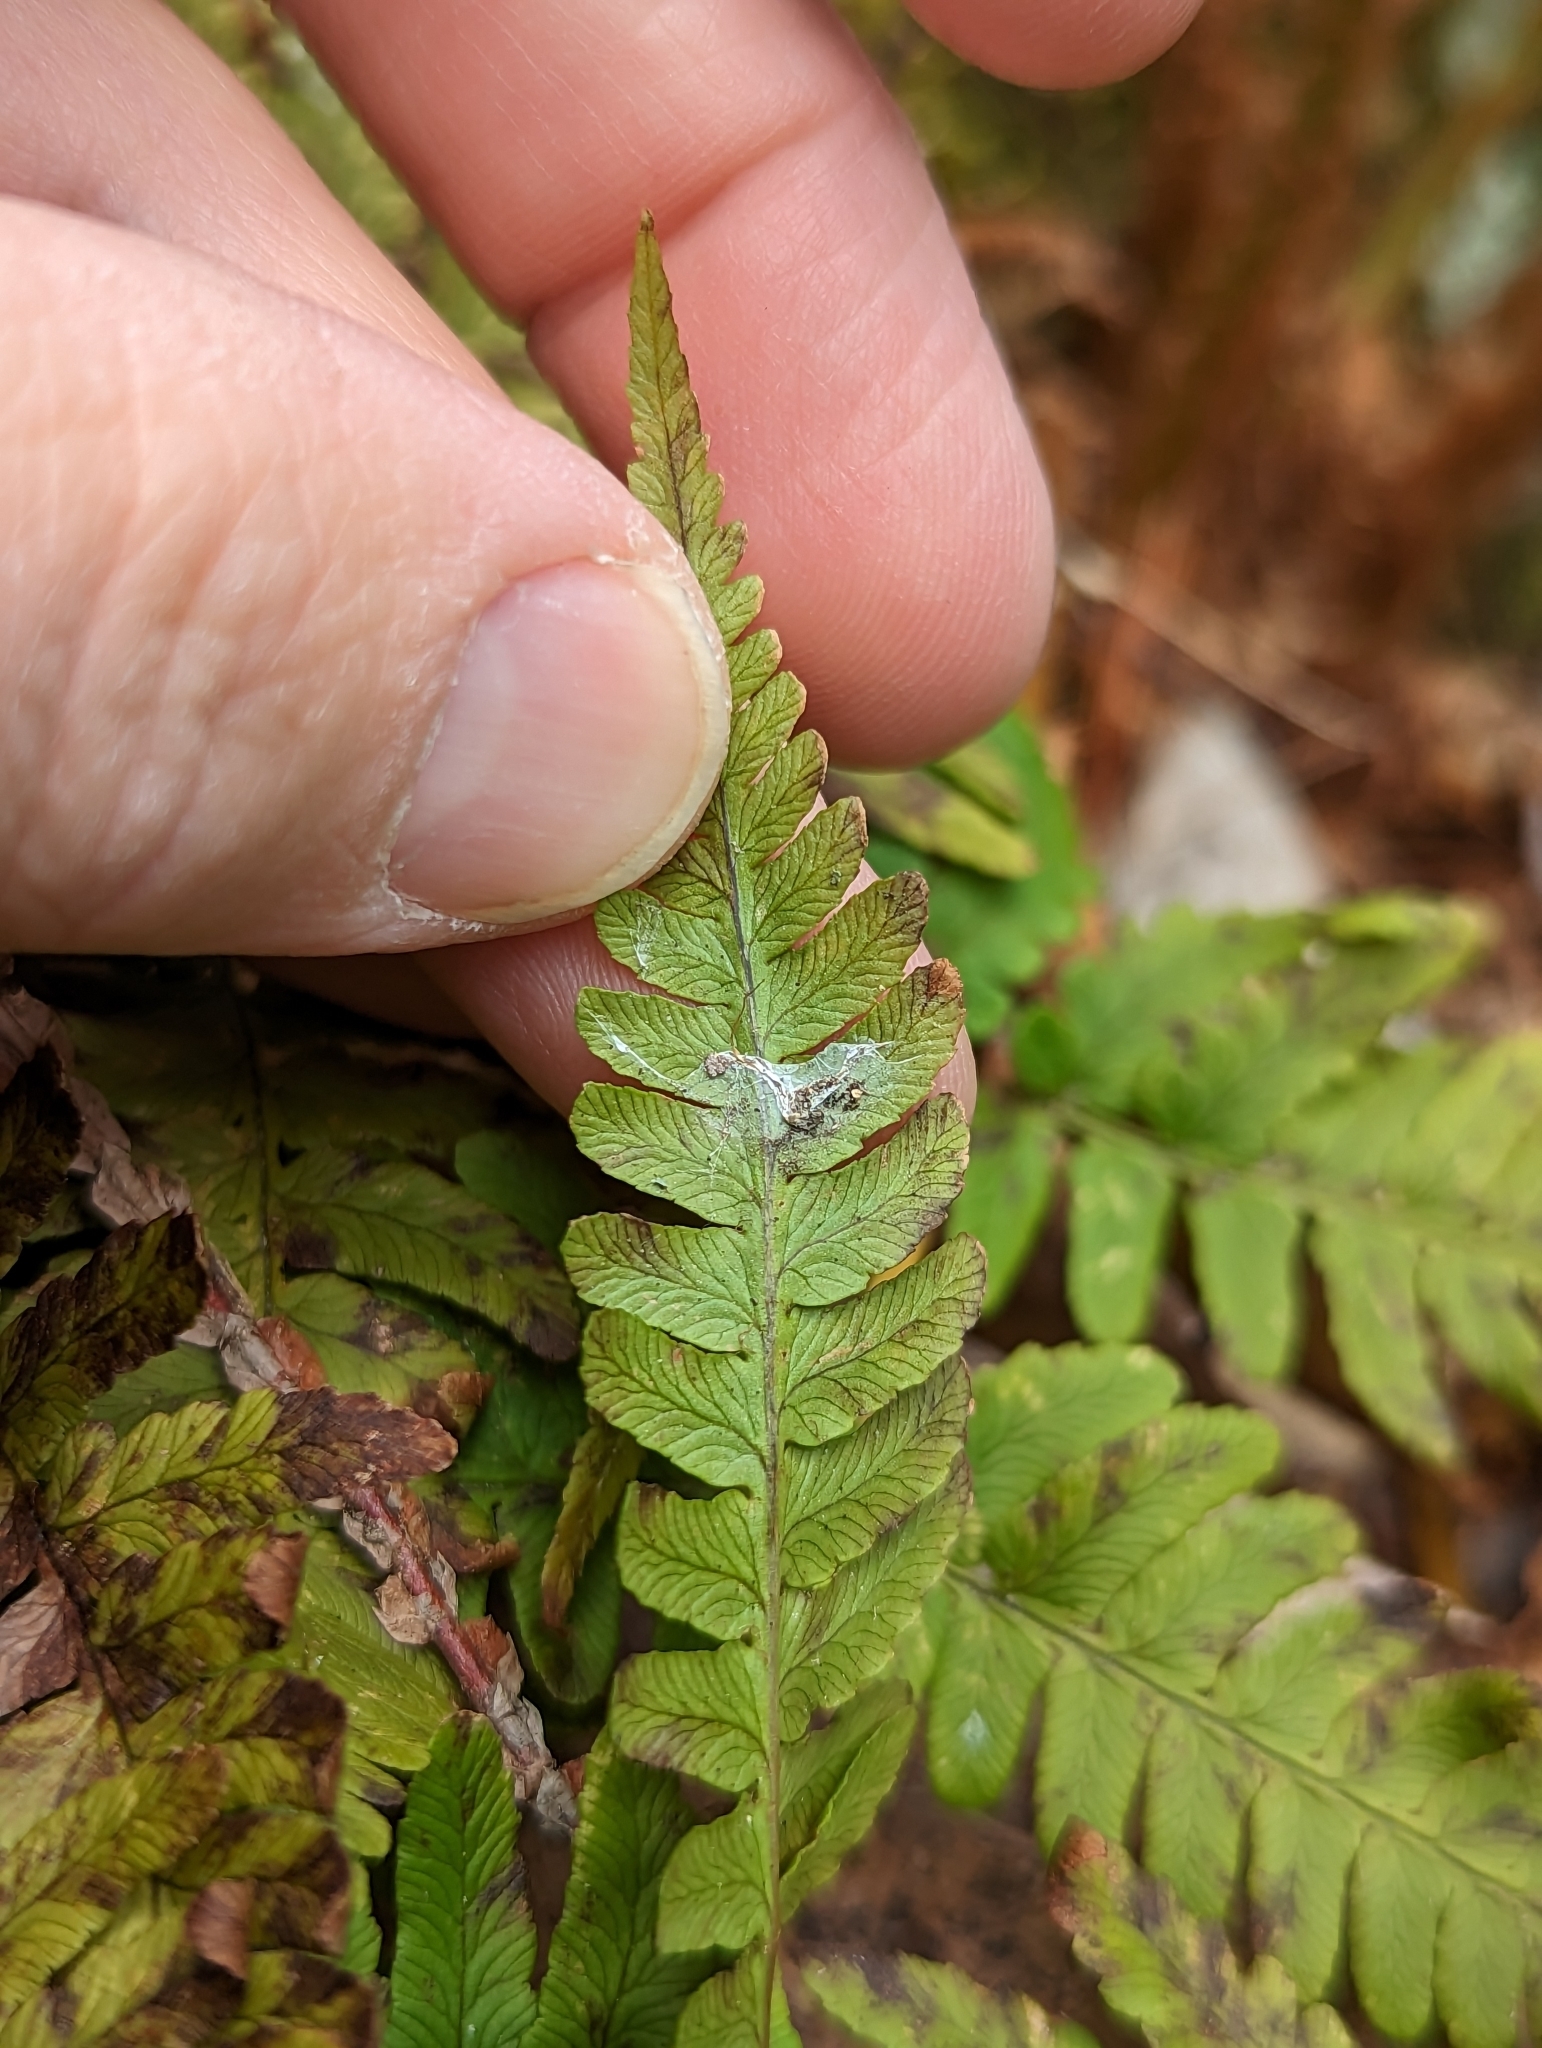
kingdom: Plantae
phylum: Tracheophyta
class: Polypodiopsida
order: Polypodiales
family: Dryopteridaceae
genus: Dryopteris
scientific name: Dryopteris marginalis
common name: Marginal wood fern
